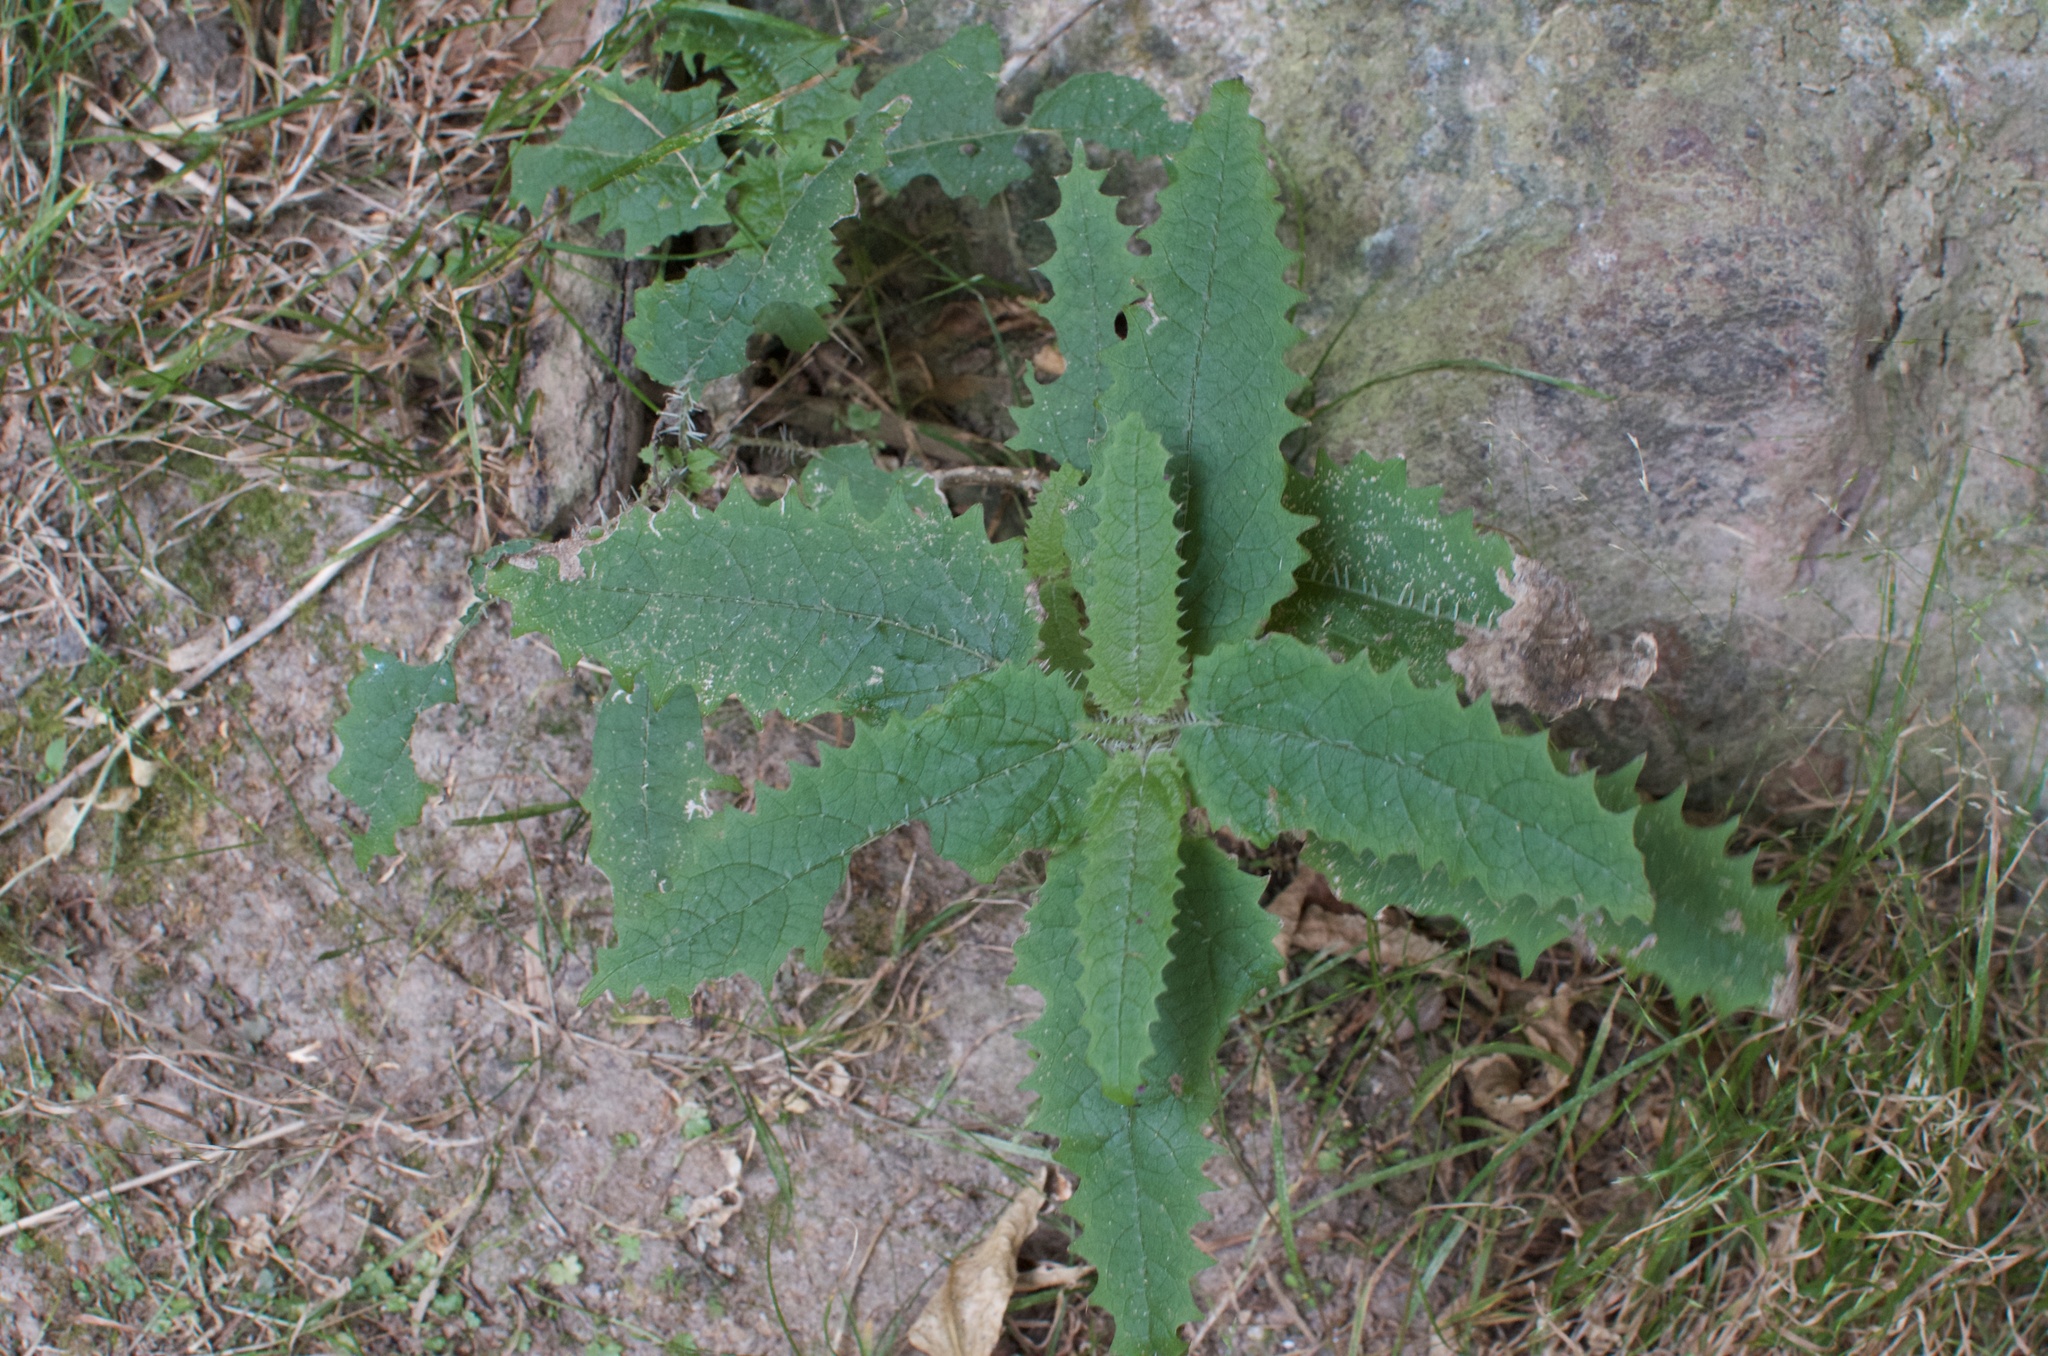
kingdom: Plantae
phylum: Tracheophyta
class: Magnoliopsida
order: Rosales
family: Urticaceae
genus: Urtica
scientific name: Urtica ferox
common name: Tree nettle
